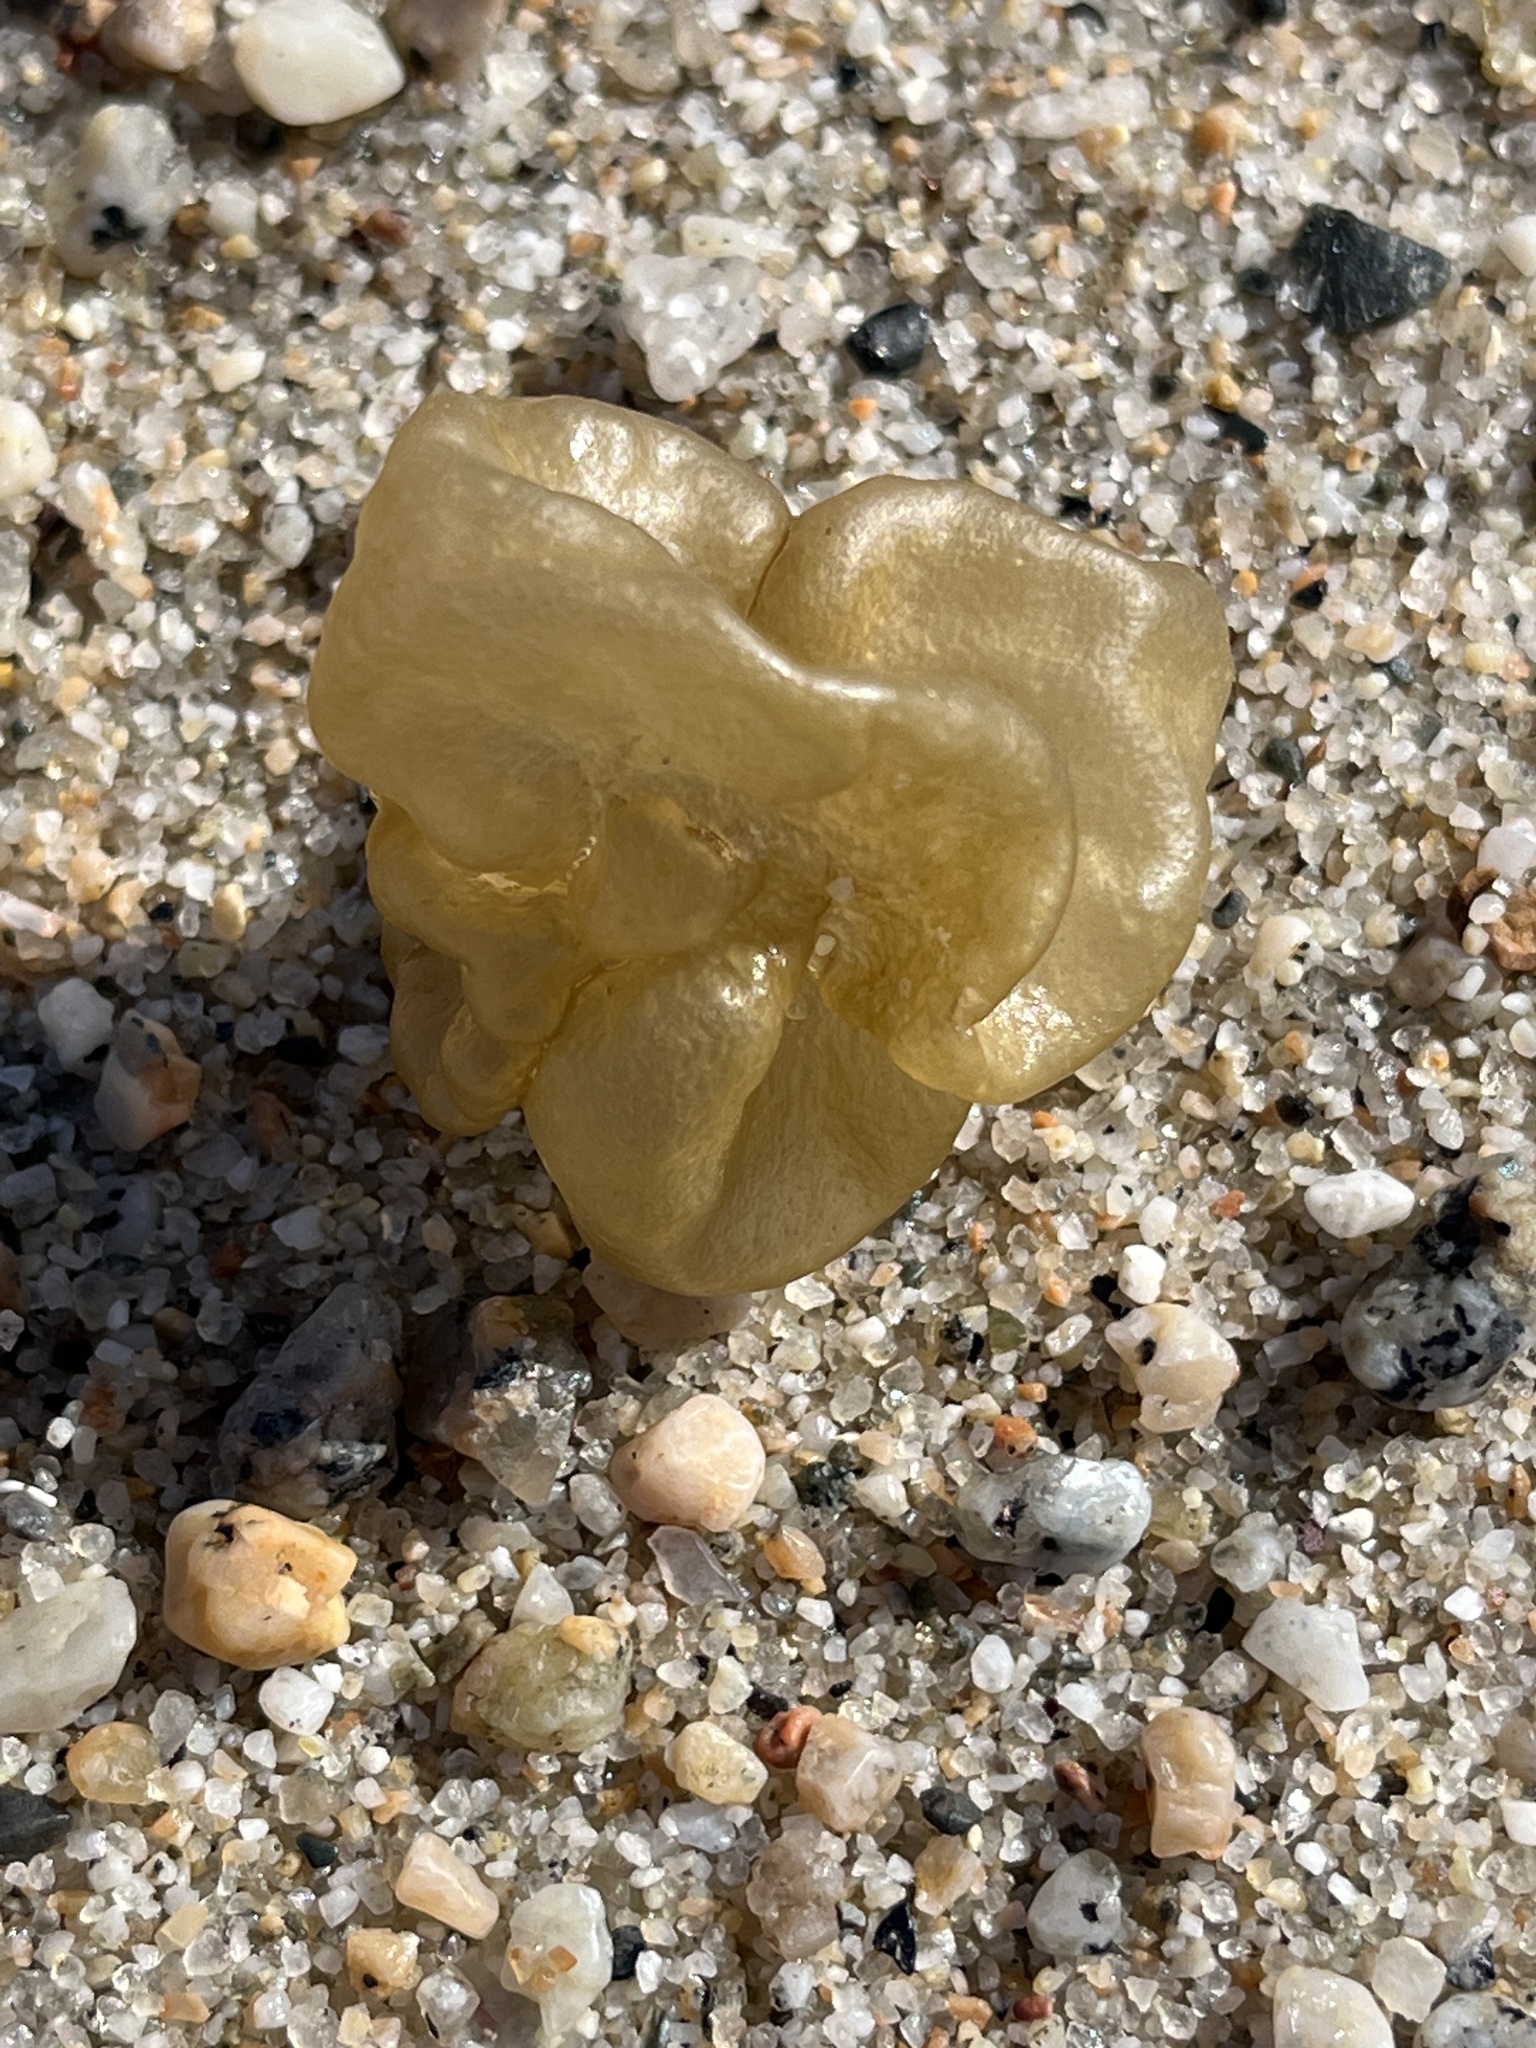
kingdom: Chromista
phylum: Ochrophyta
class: Phaeophyceae
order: Scytosiphonales
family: Scytosiphonaceae
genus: Colpomenia
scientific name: Colpomenia peregrina
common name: Oyster thief
